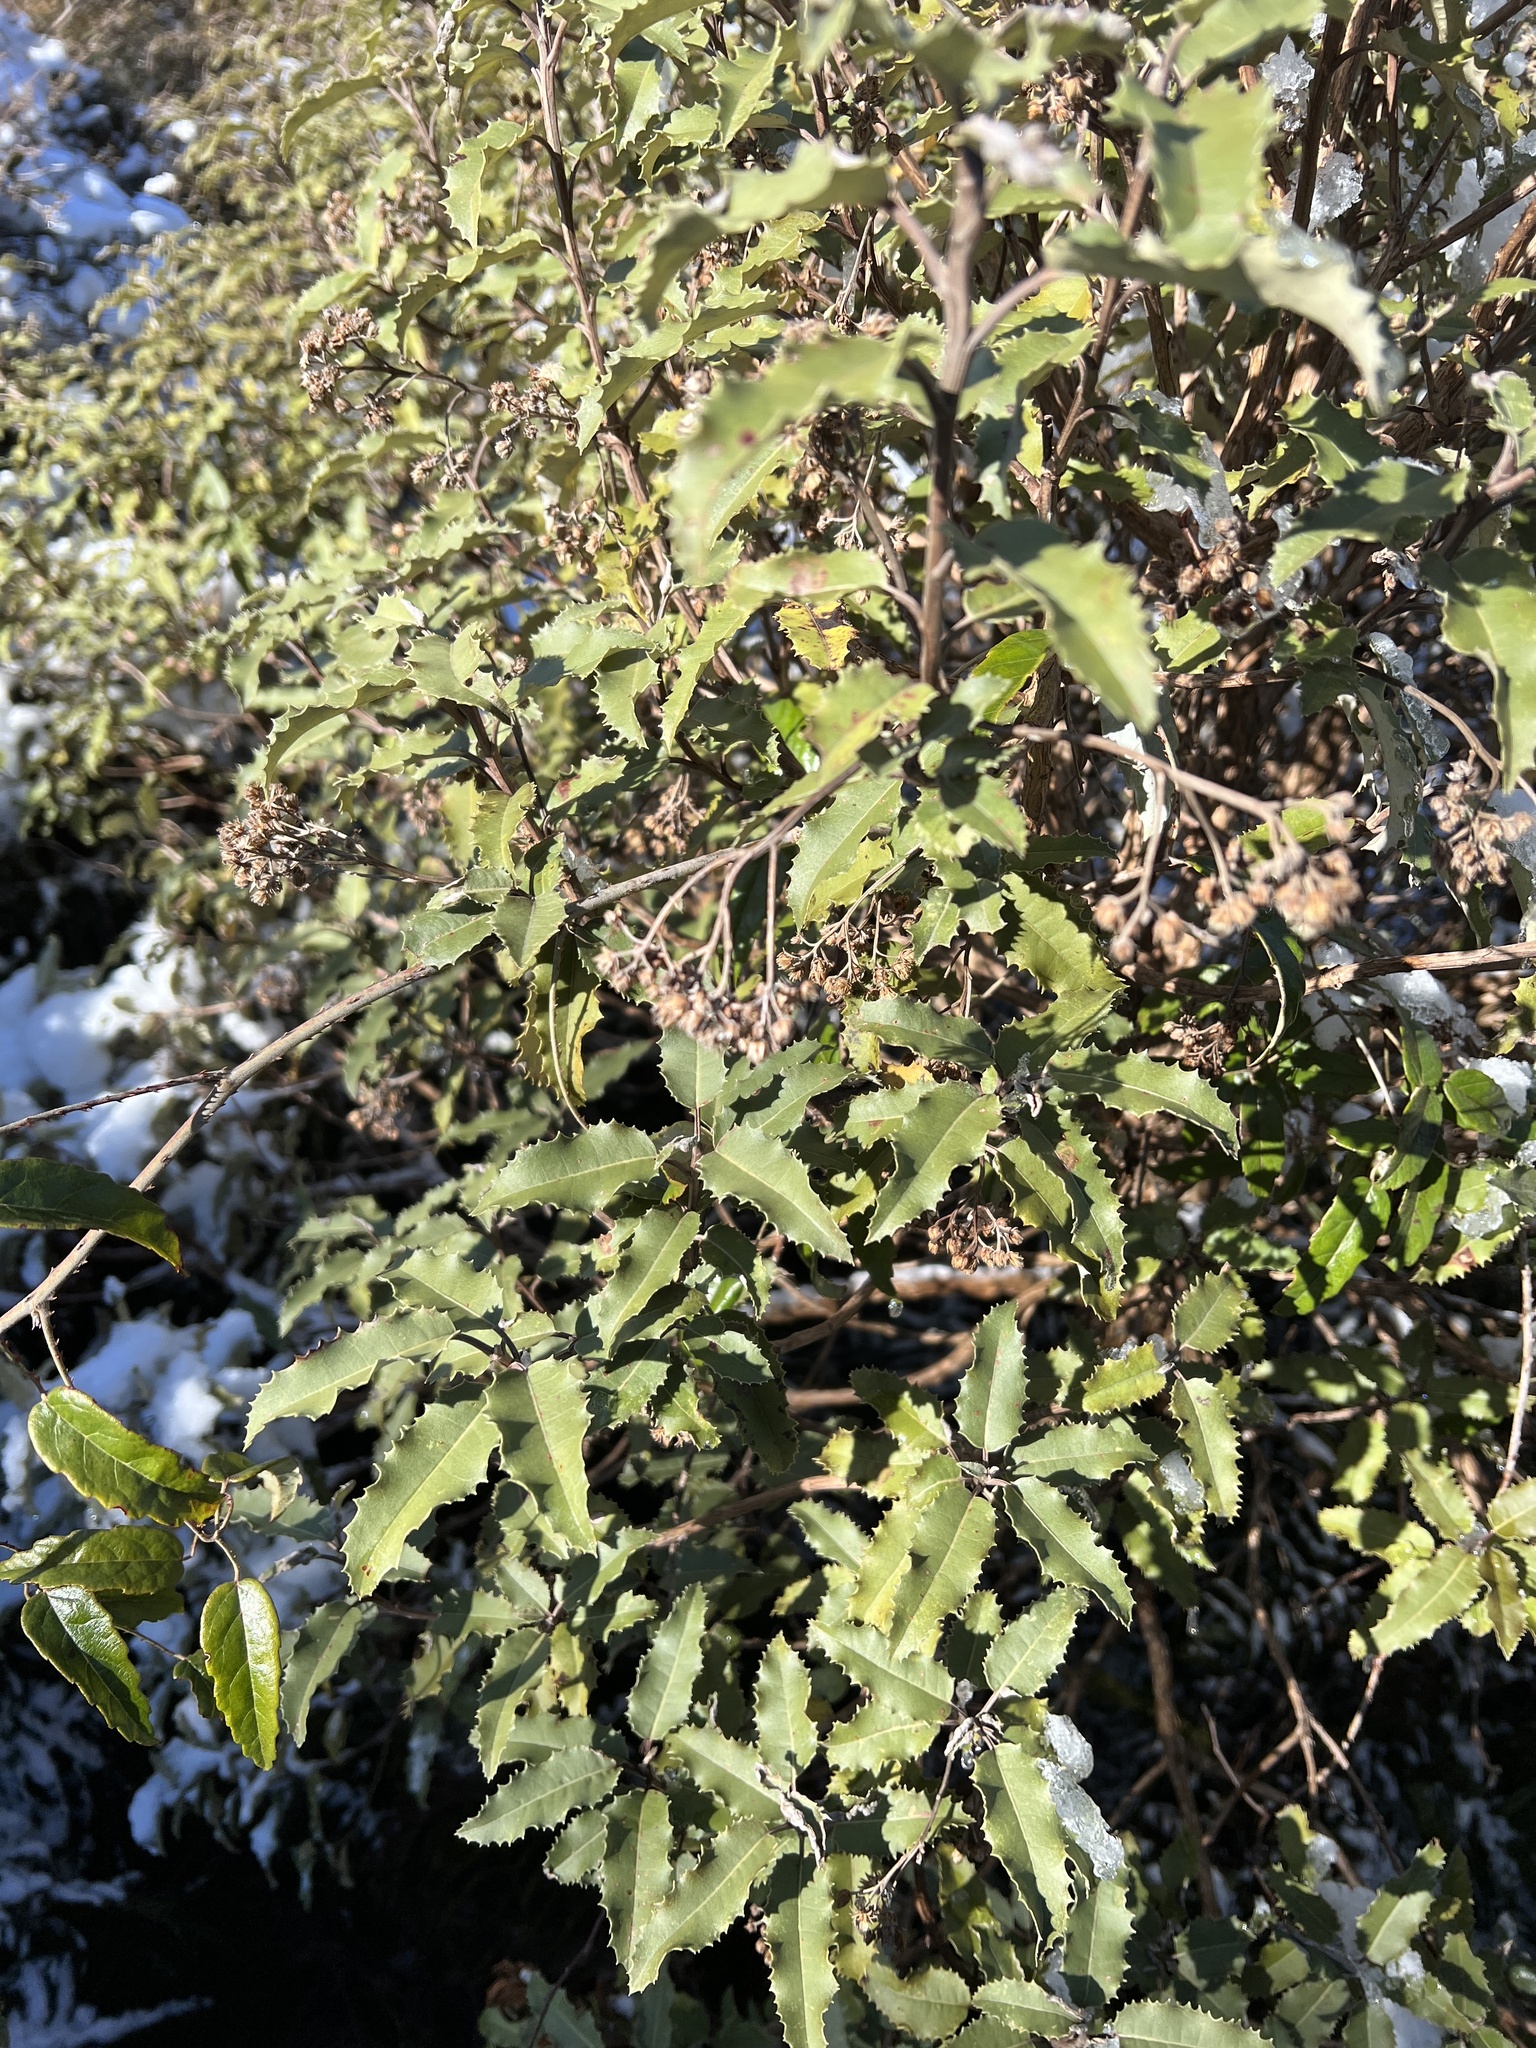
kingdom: Plantae
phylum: Tracheophyta
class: Magnoliopsida
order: Asterales
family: Asteraceae
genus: Olearia
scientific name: Olearia ilicifolia
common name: Maori-holly
